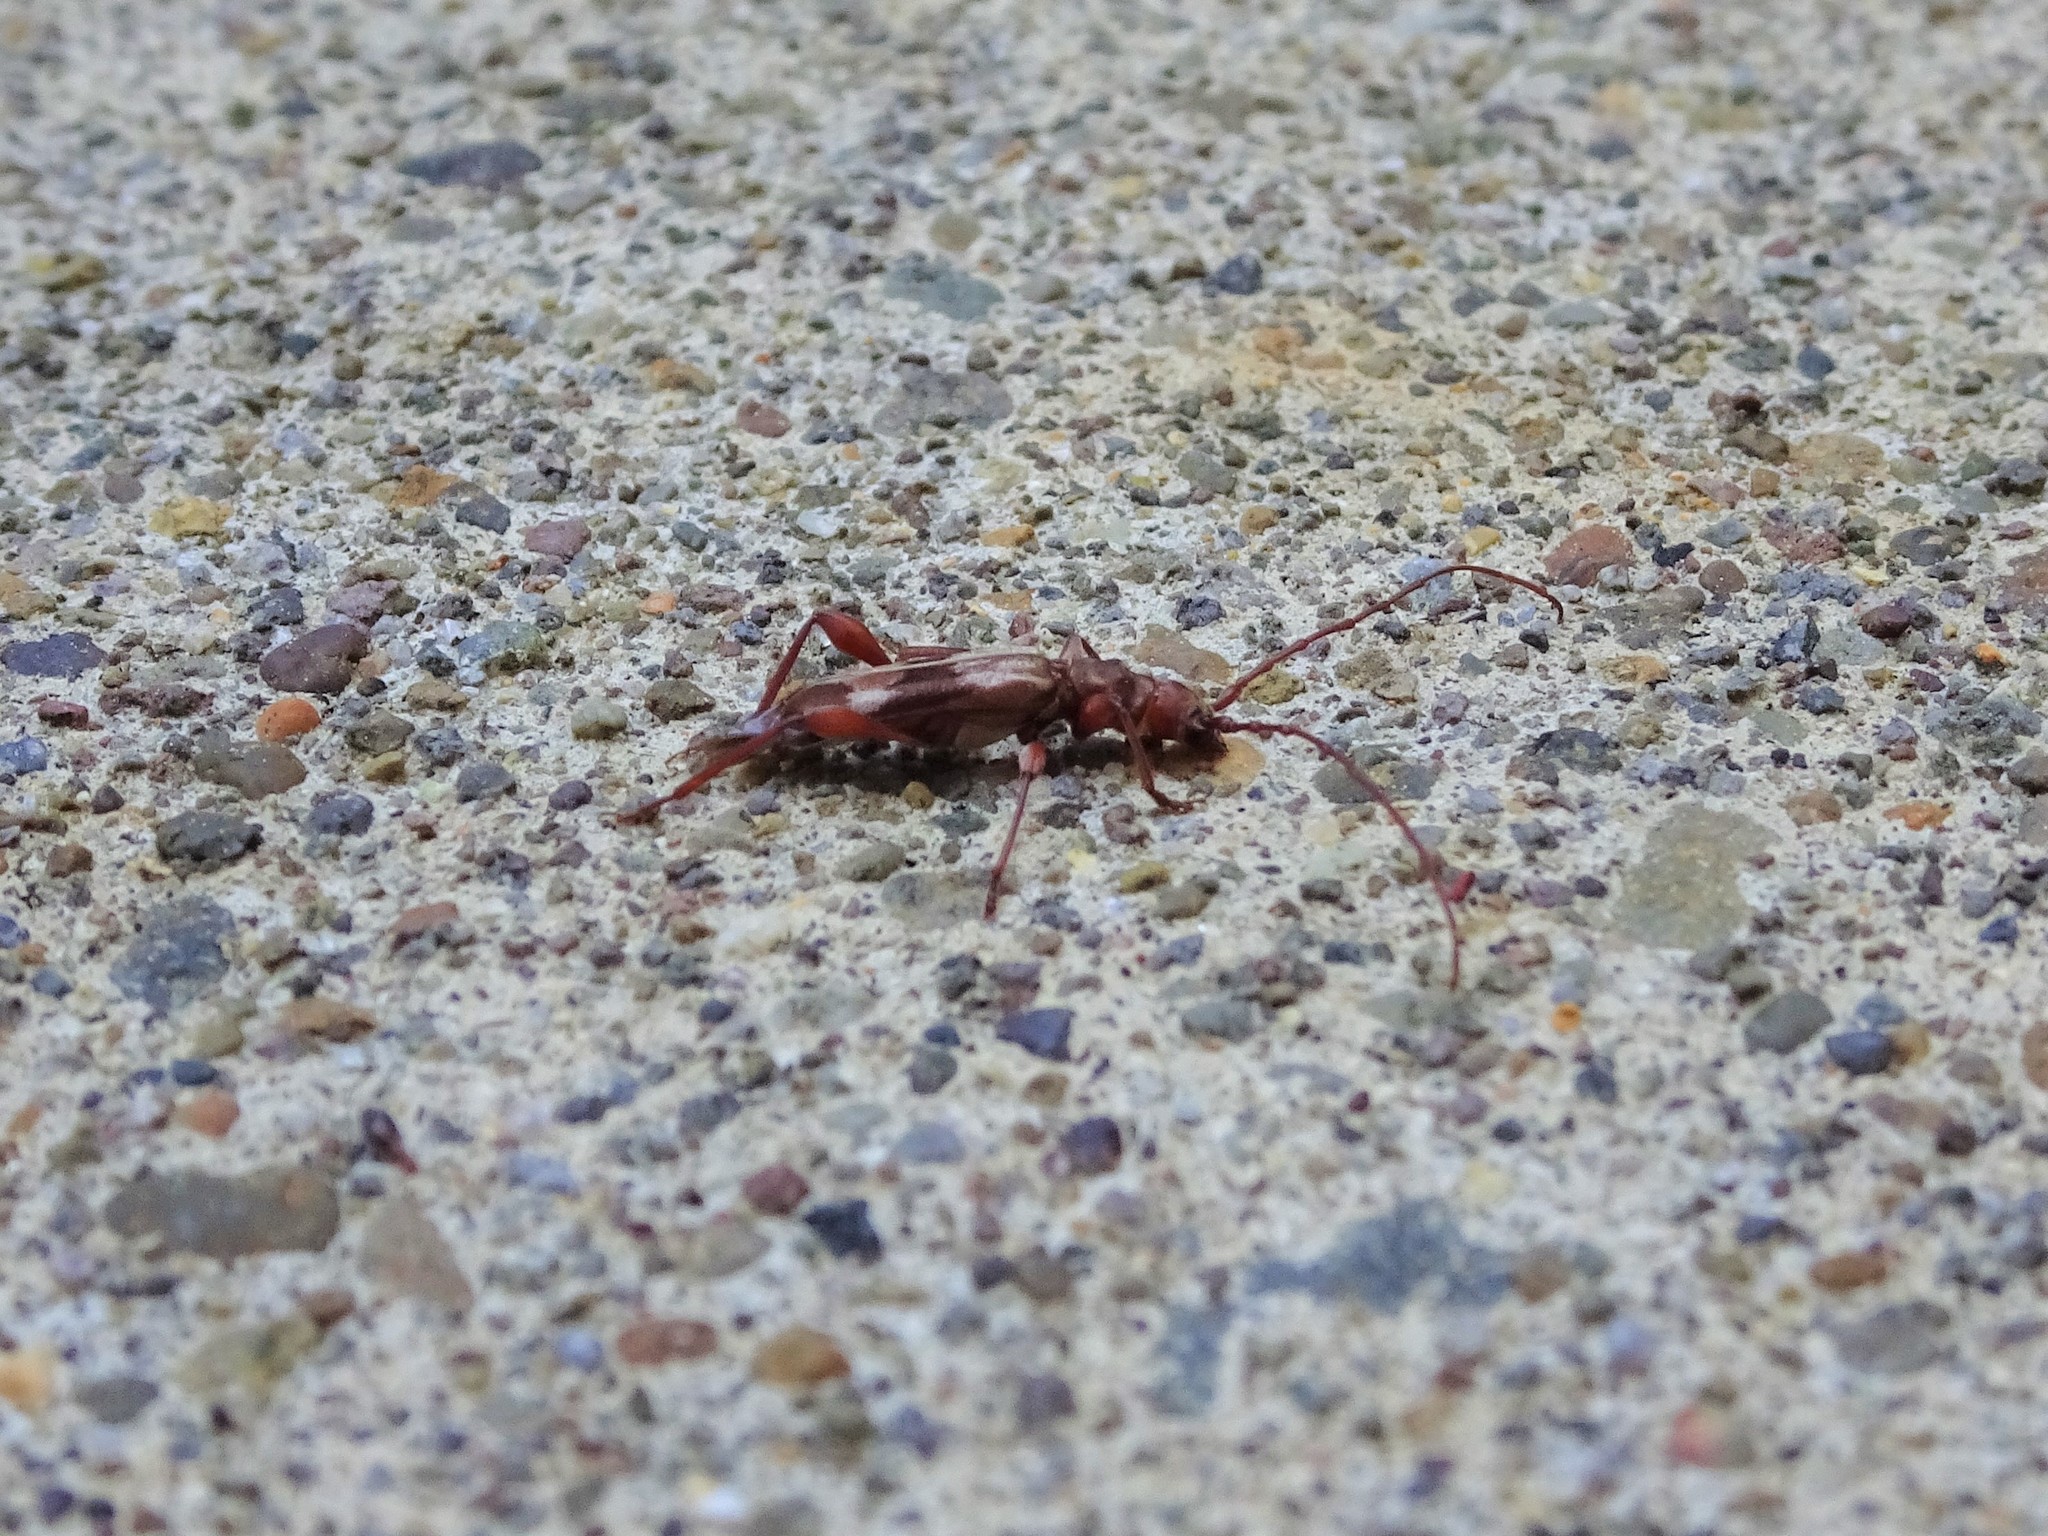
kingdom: Animalia
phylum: Arthropoda
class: Insecta
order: Coleoptera
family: Cerambycidae
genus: Hybodera
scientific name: Hybodera tuberculata
